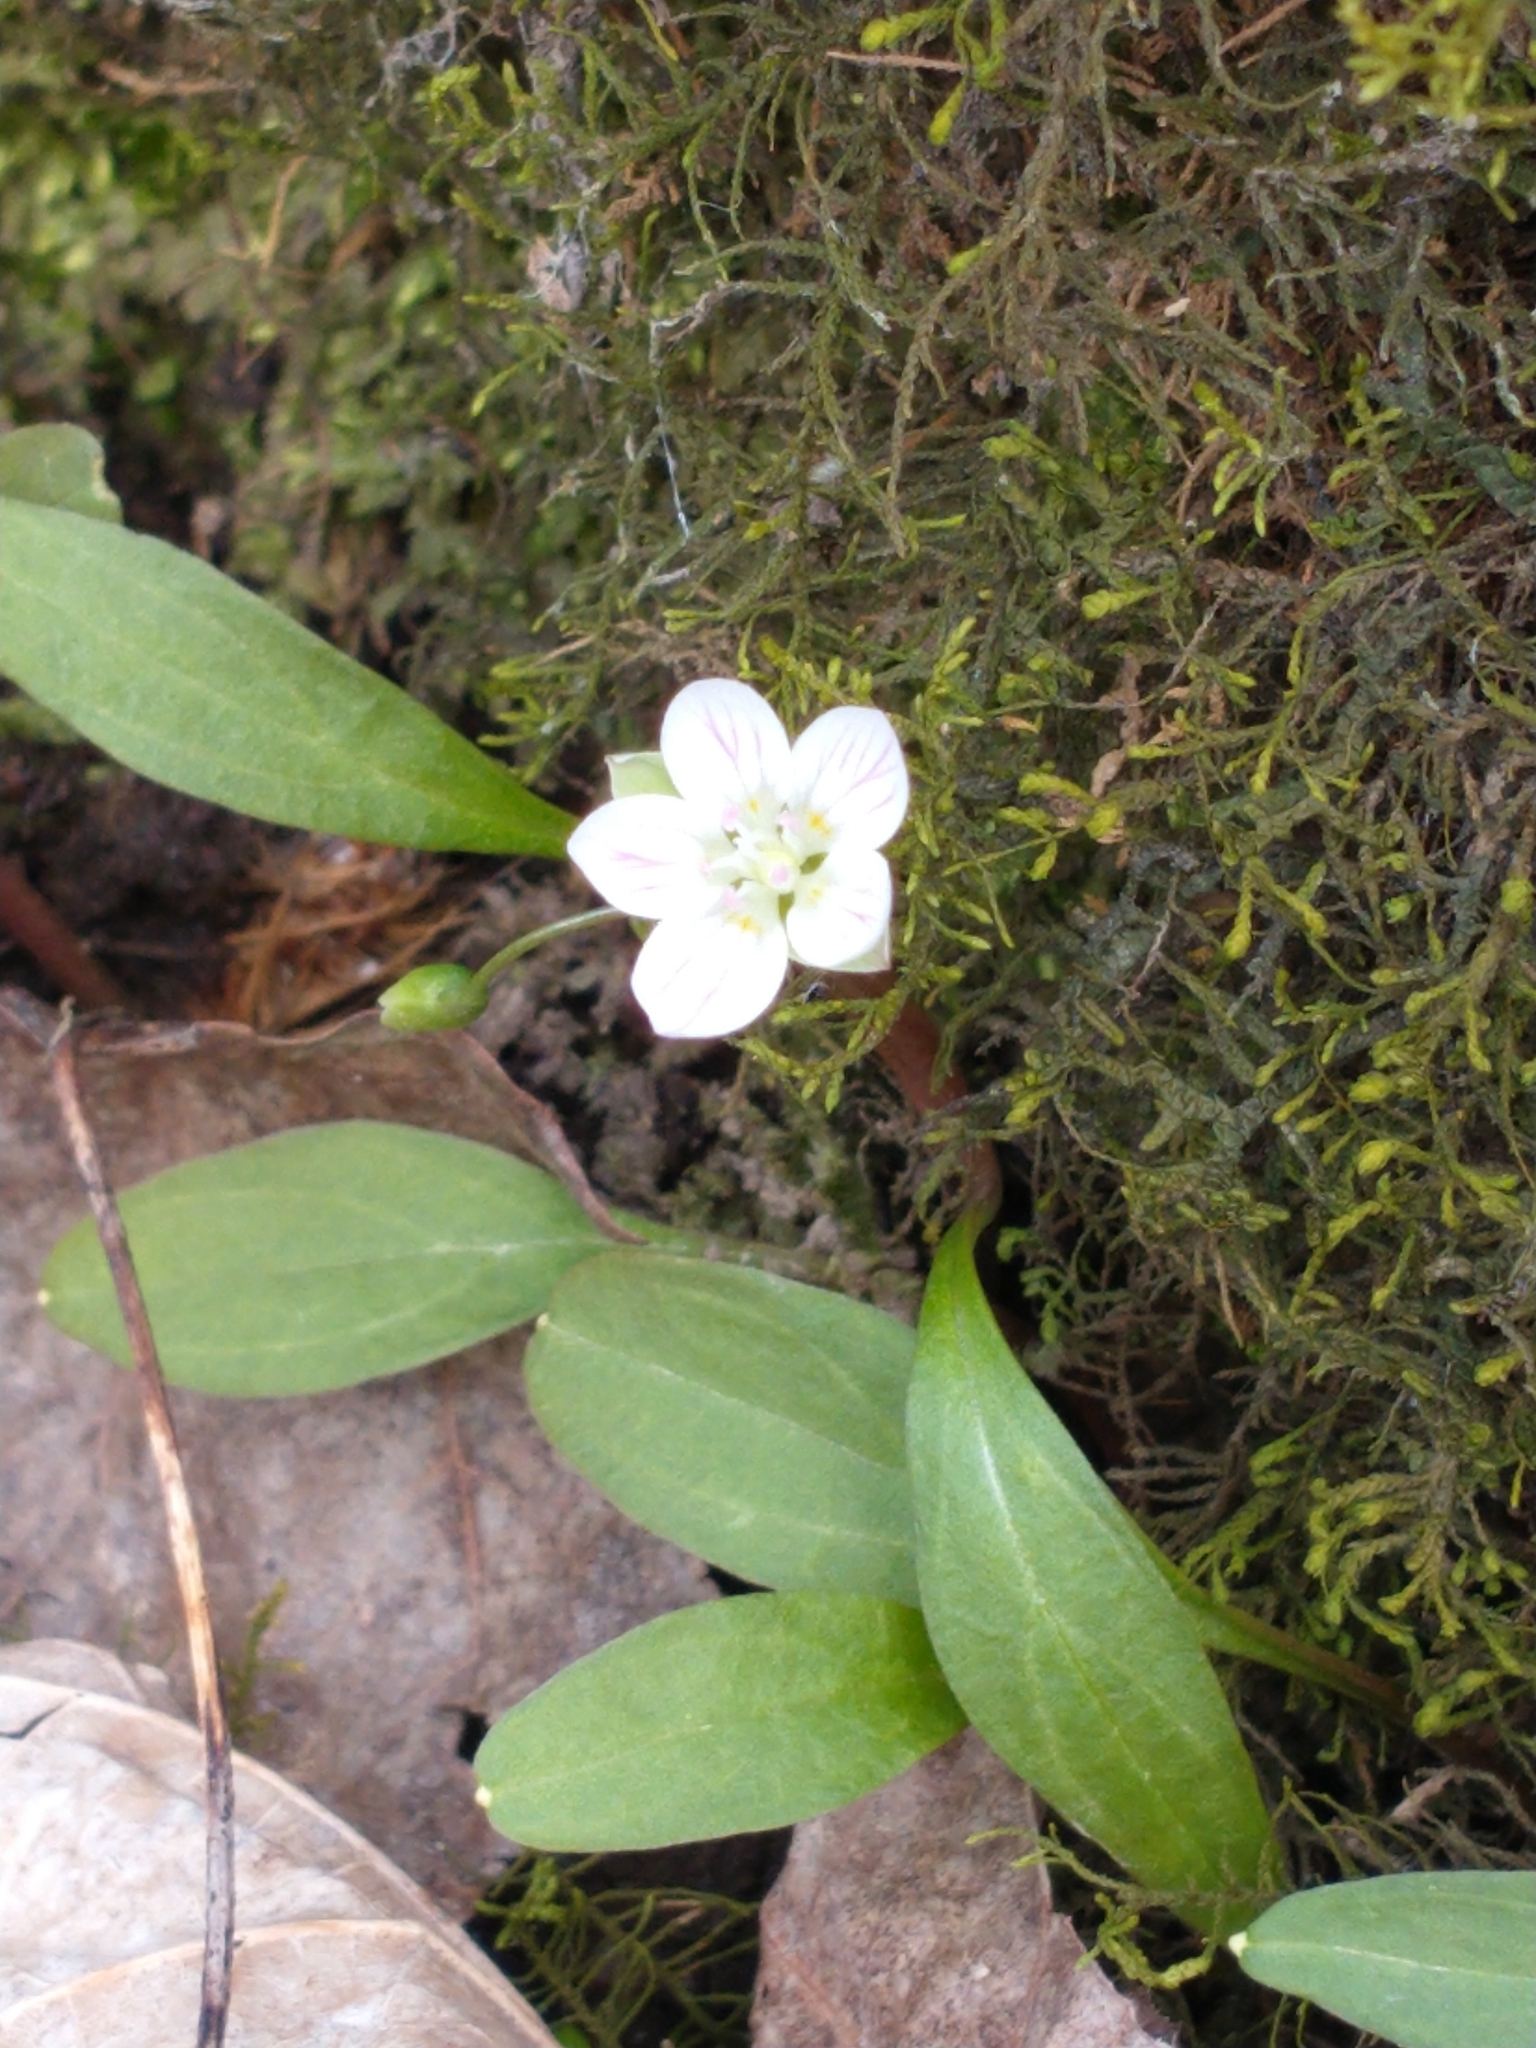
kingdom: Plantae
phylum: Tracheophyta
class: Magnoliopsida
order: Caryophyllales
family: Montiaceae
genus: Claytonia
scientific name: Claytonia caroliniana
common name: Carolina spring beauty
